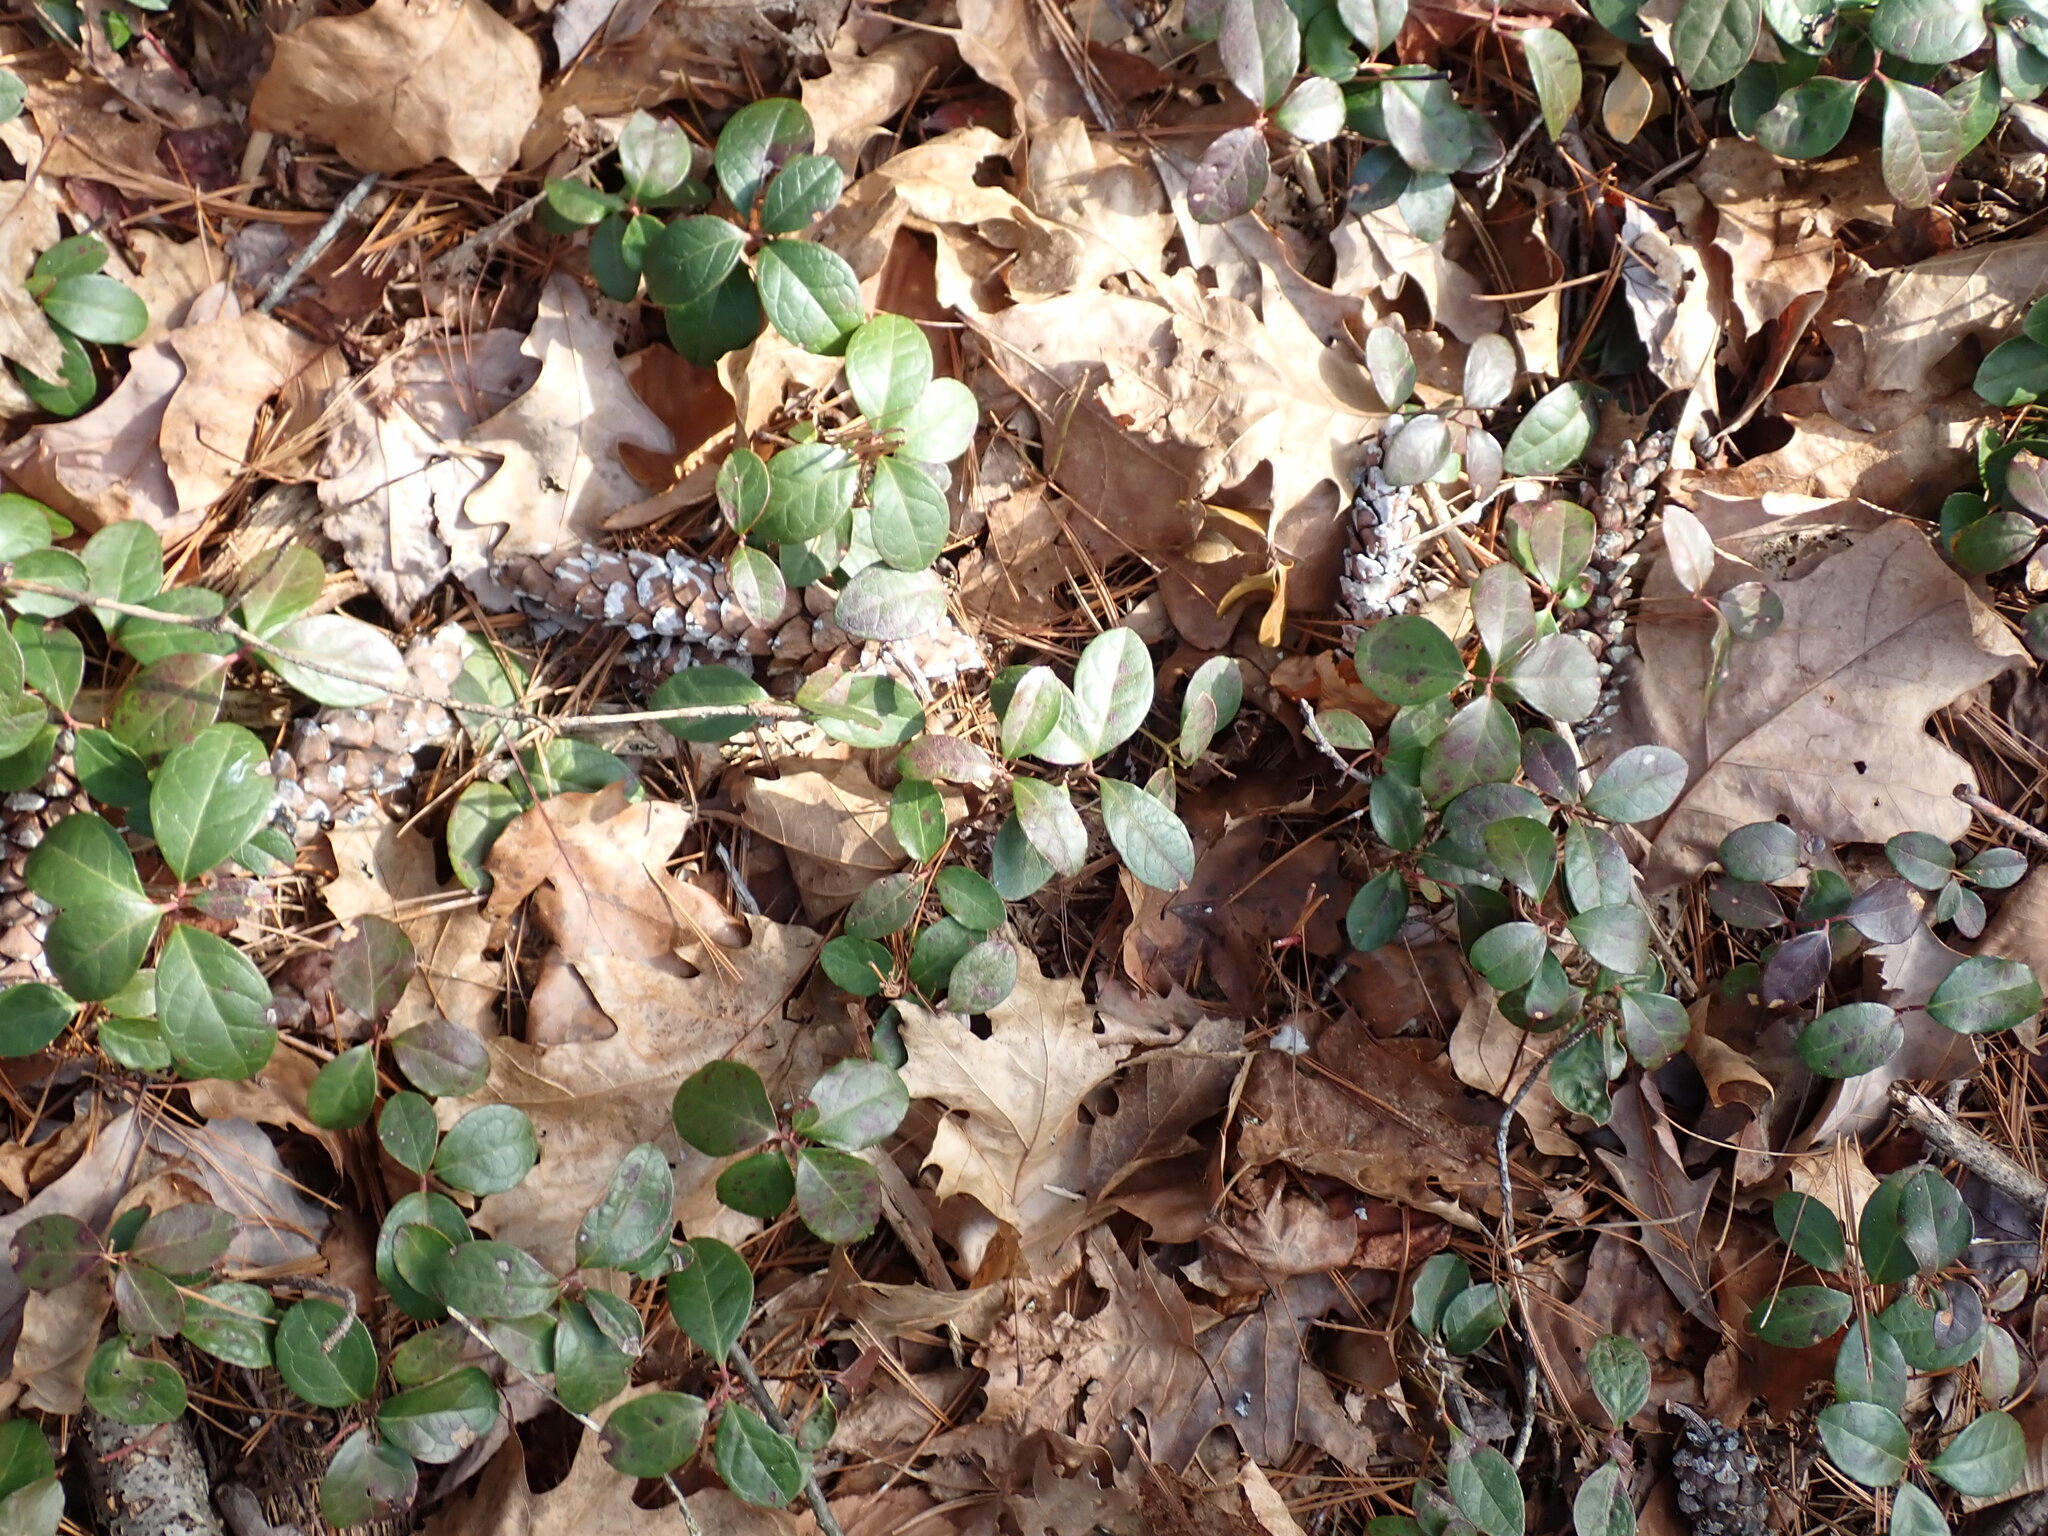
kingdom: Plantae
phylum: Tracheophyta
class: Magnoliopsida
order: Ericales
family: Ericaceae
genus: Gaultheria
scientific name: Gaultheria procumbens
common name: Checkerberry
